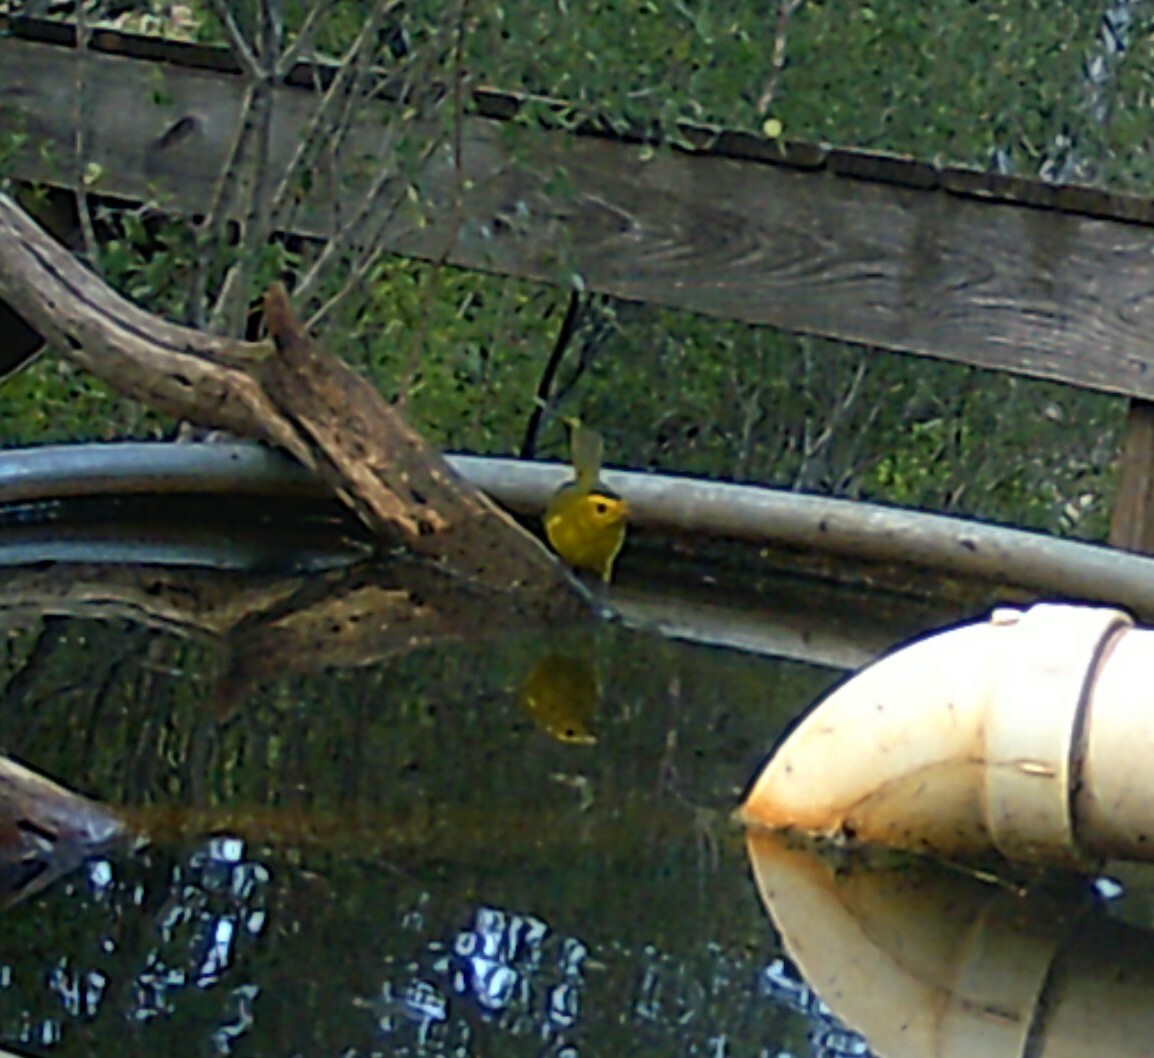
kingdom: Animalia
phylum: Chordata
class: Aves
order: Passeriformes
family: Parulidae
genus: Cardellina
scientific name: Cardellina pusilla
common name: Wilson's warbler
